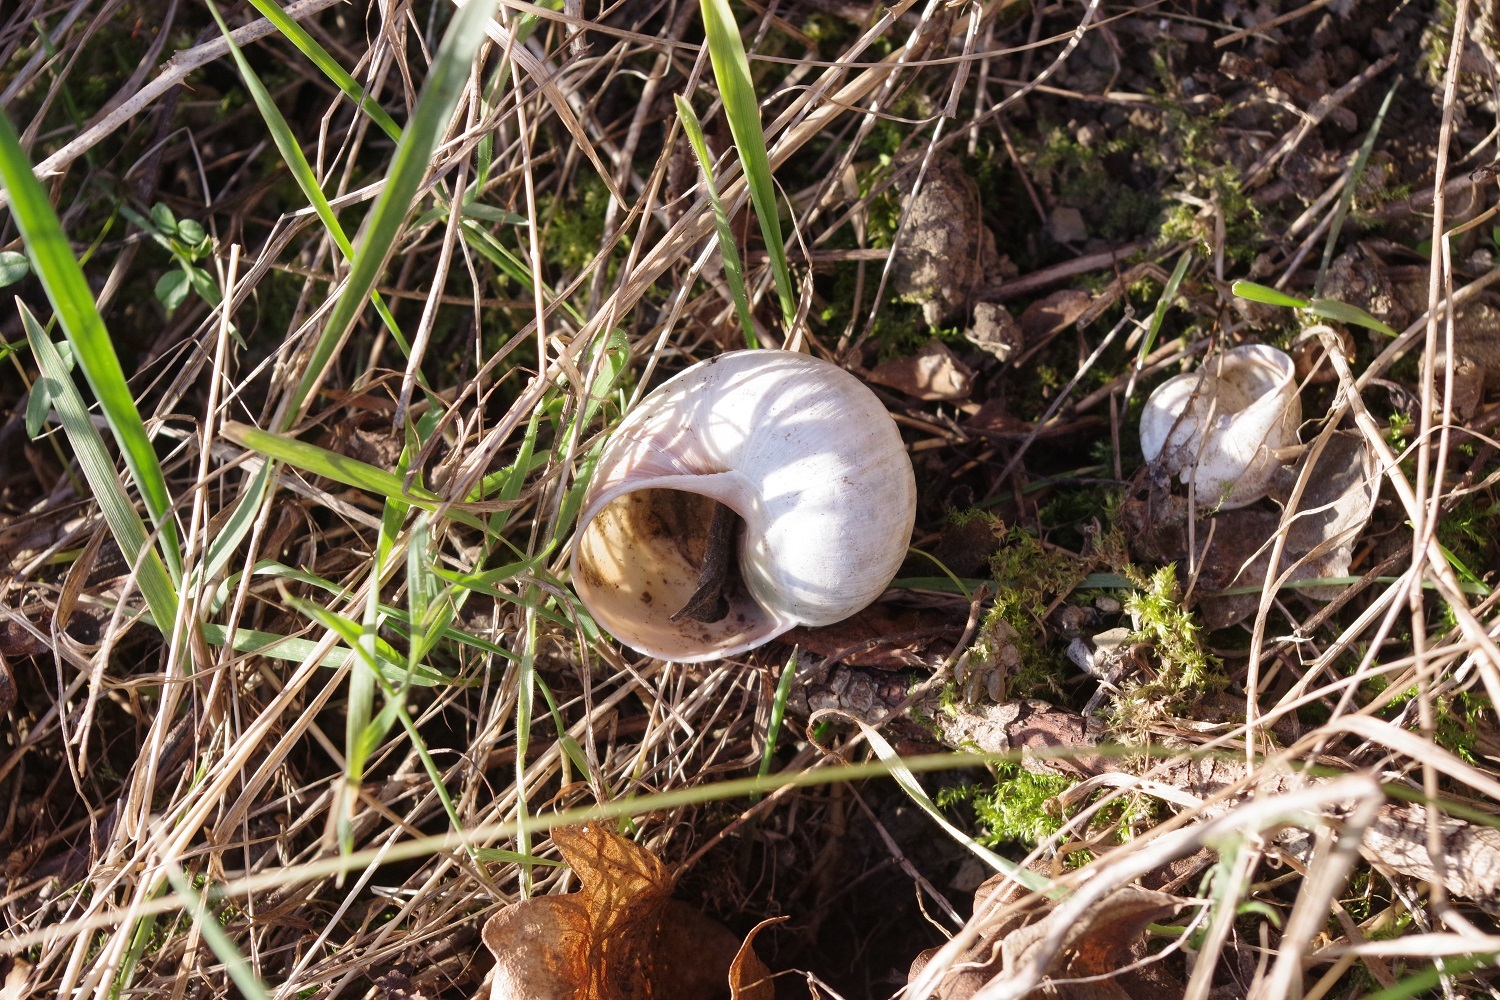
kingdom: Animalia
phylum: Mollusca
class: Gastropoda
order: Stylommatophora
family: Helicidae
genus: Helix
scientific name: Helix pomatia
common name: Roman snail
